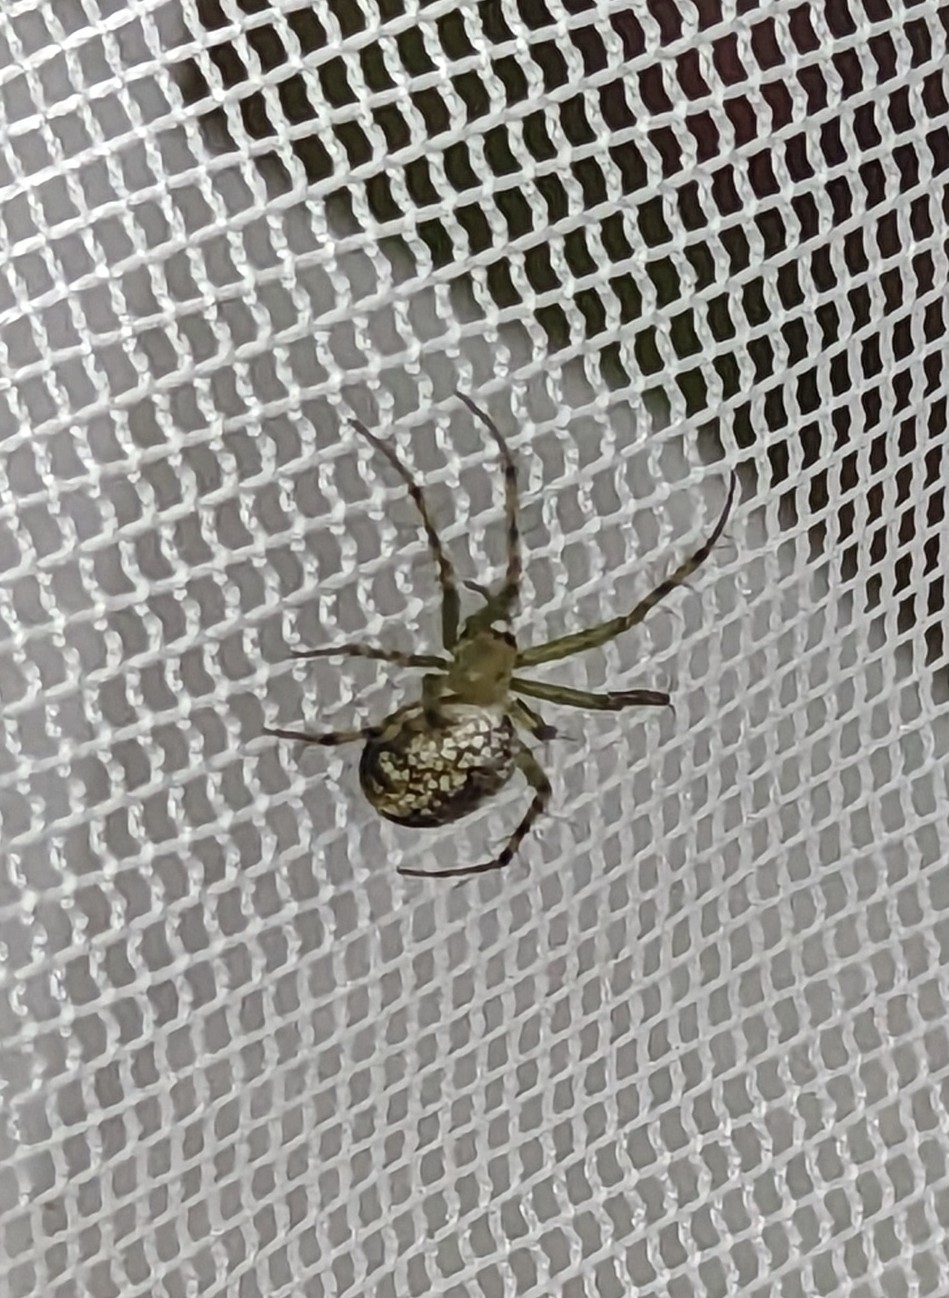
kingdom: Animalia
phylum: Arthropoda
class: Arachnida
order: Araneae
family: Araneidae
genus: Mangora
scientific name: Mangora maculata
